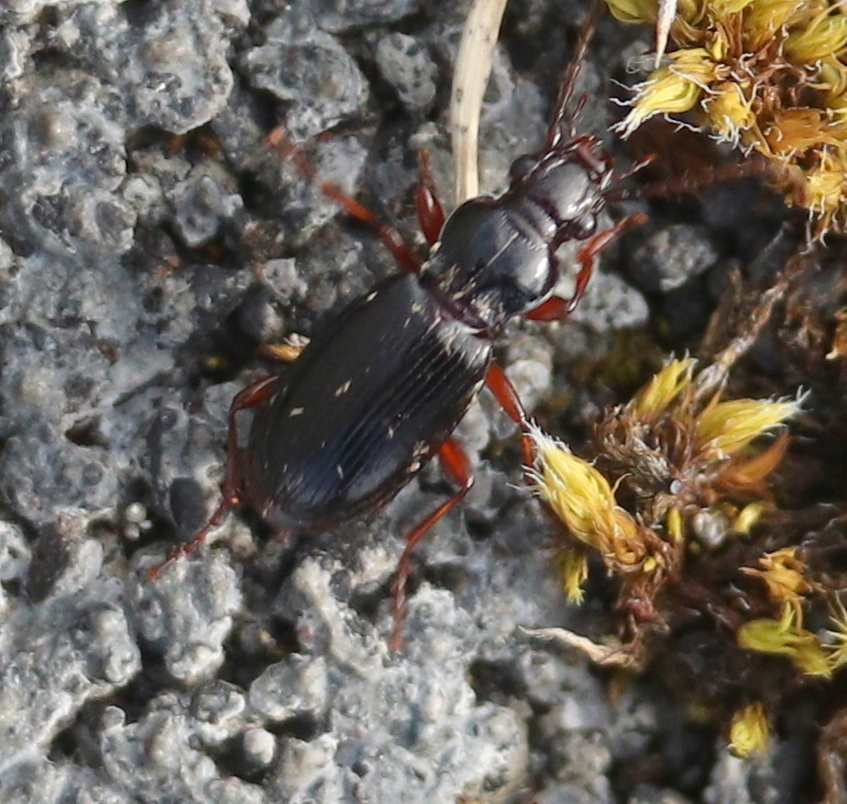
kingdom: Animalia
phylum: Arthropoda
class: Insecta
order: Coleoptera
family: Carabidae
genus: Patrobus
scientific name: Patrobus atrorufus
